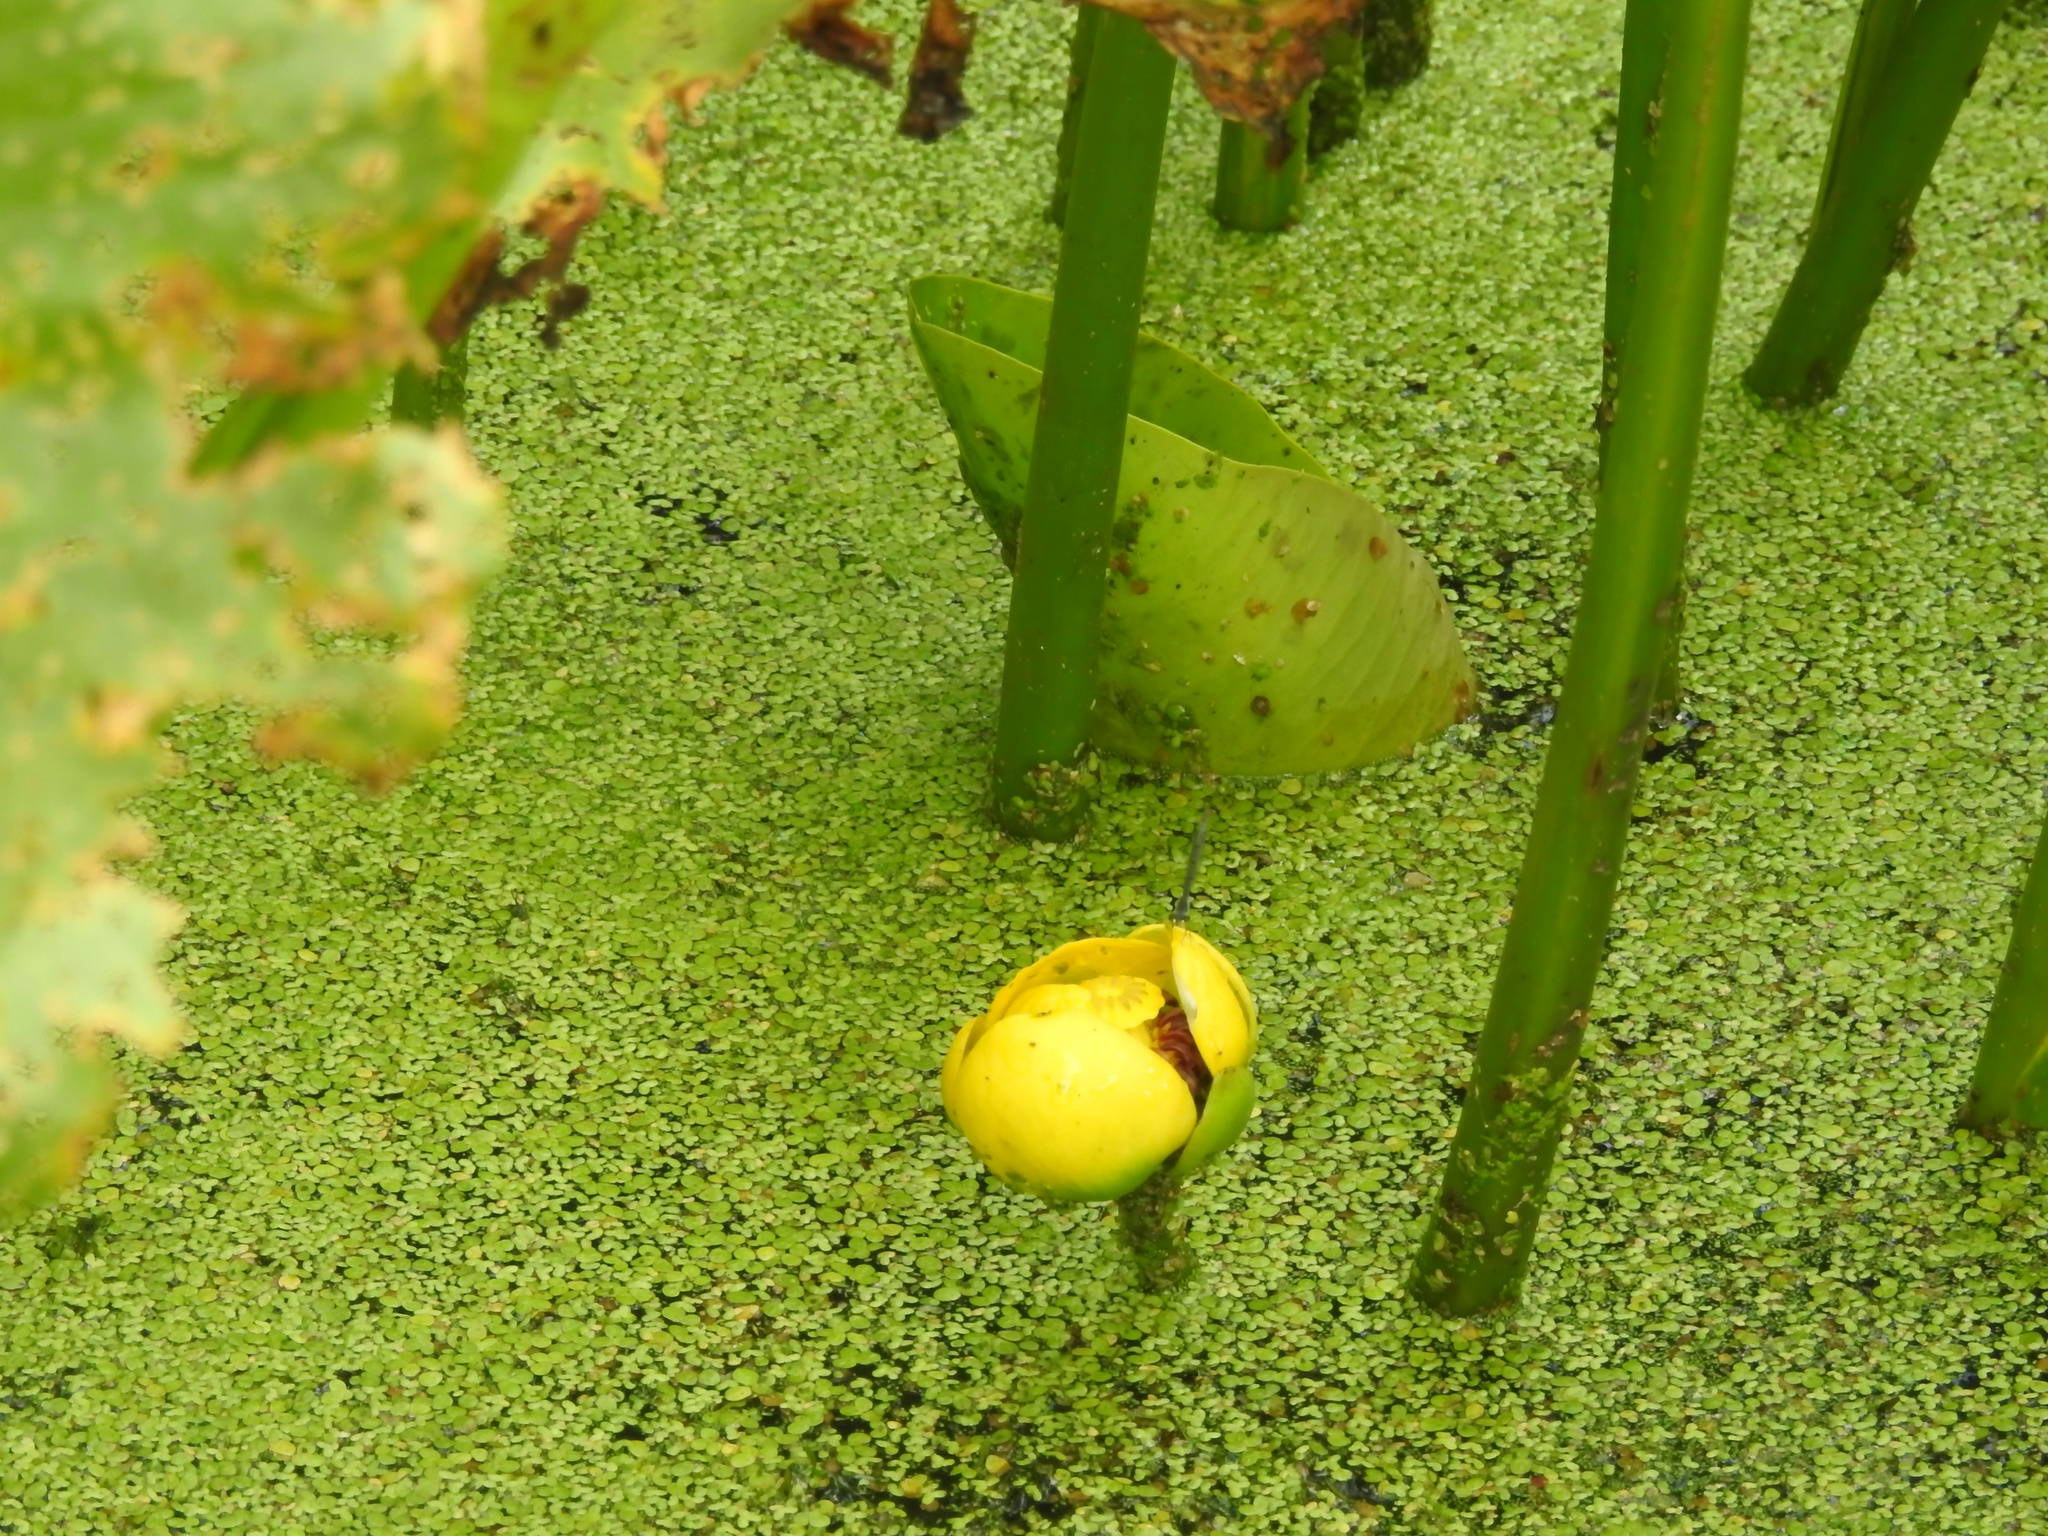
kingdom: Plantae
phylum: Tracheophyta
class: Magnoliopsida
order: Nymphaeales
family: Nymphaeaceae
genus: Nuphar
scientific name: Nuphar advena
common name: Spatter-dock
